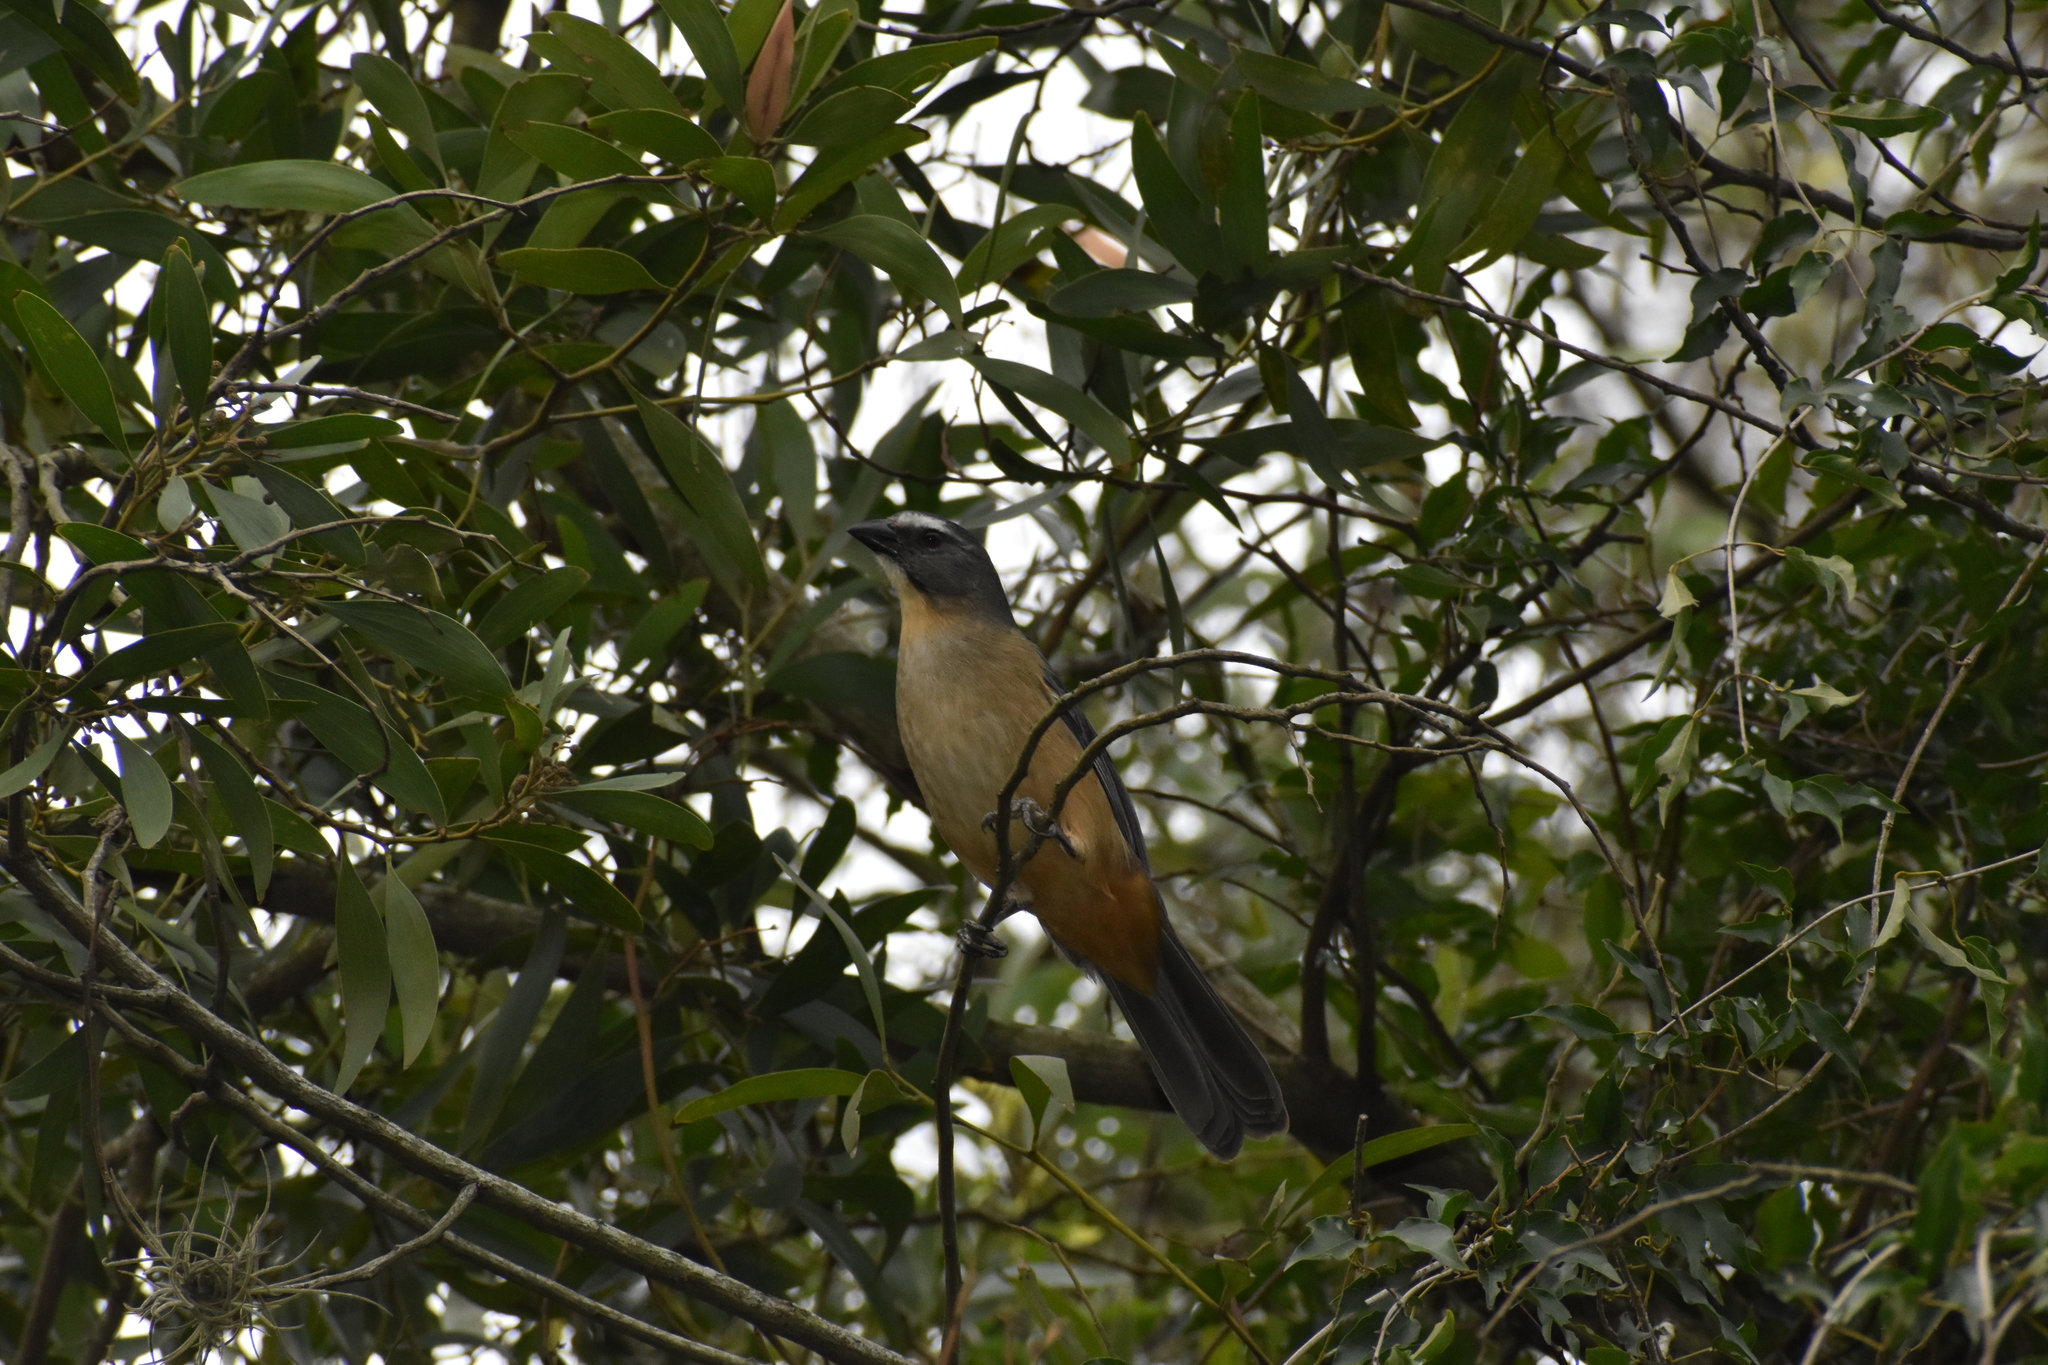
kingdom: Animalia
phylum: Chordata
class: Aves
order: Passeriformes
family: Thraupidae
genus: Saltator
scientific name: Saltator coerulescens
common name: Grayish saltator
